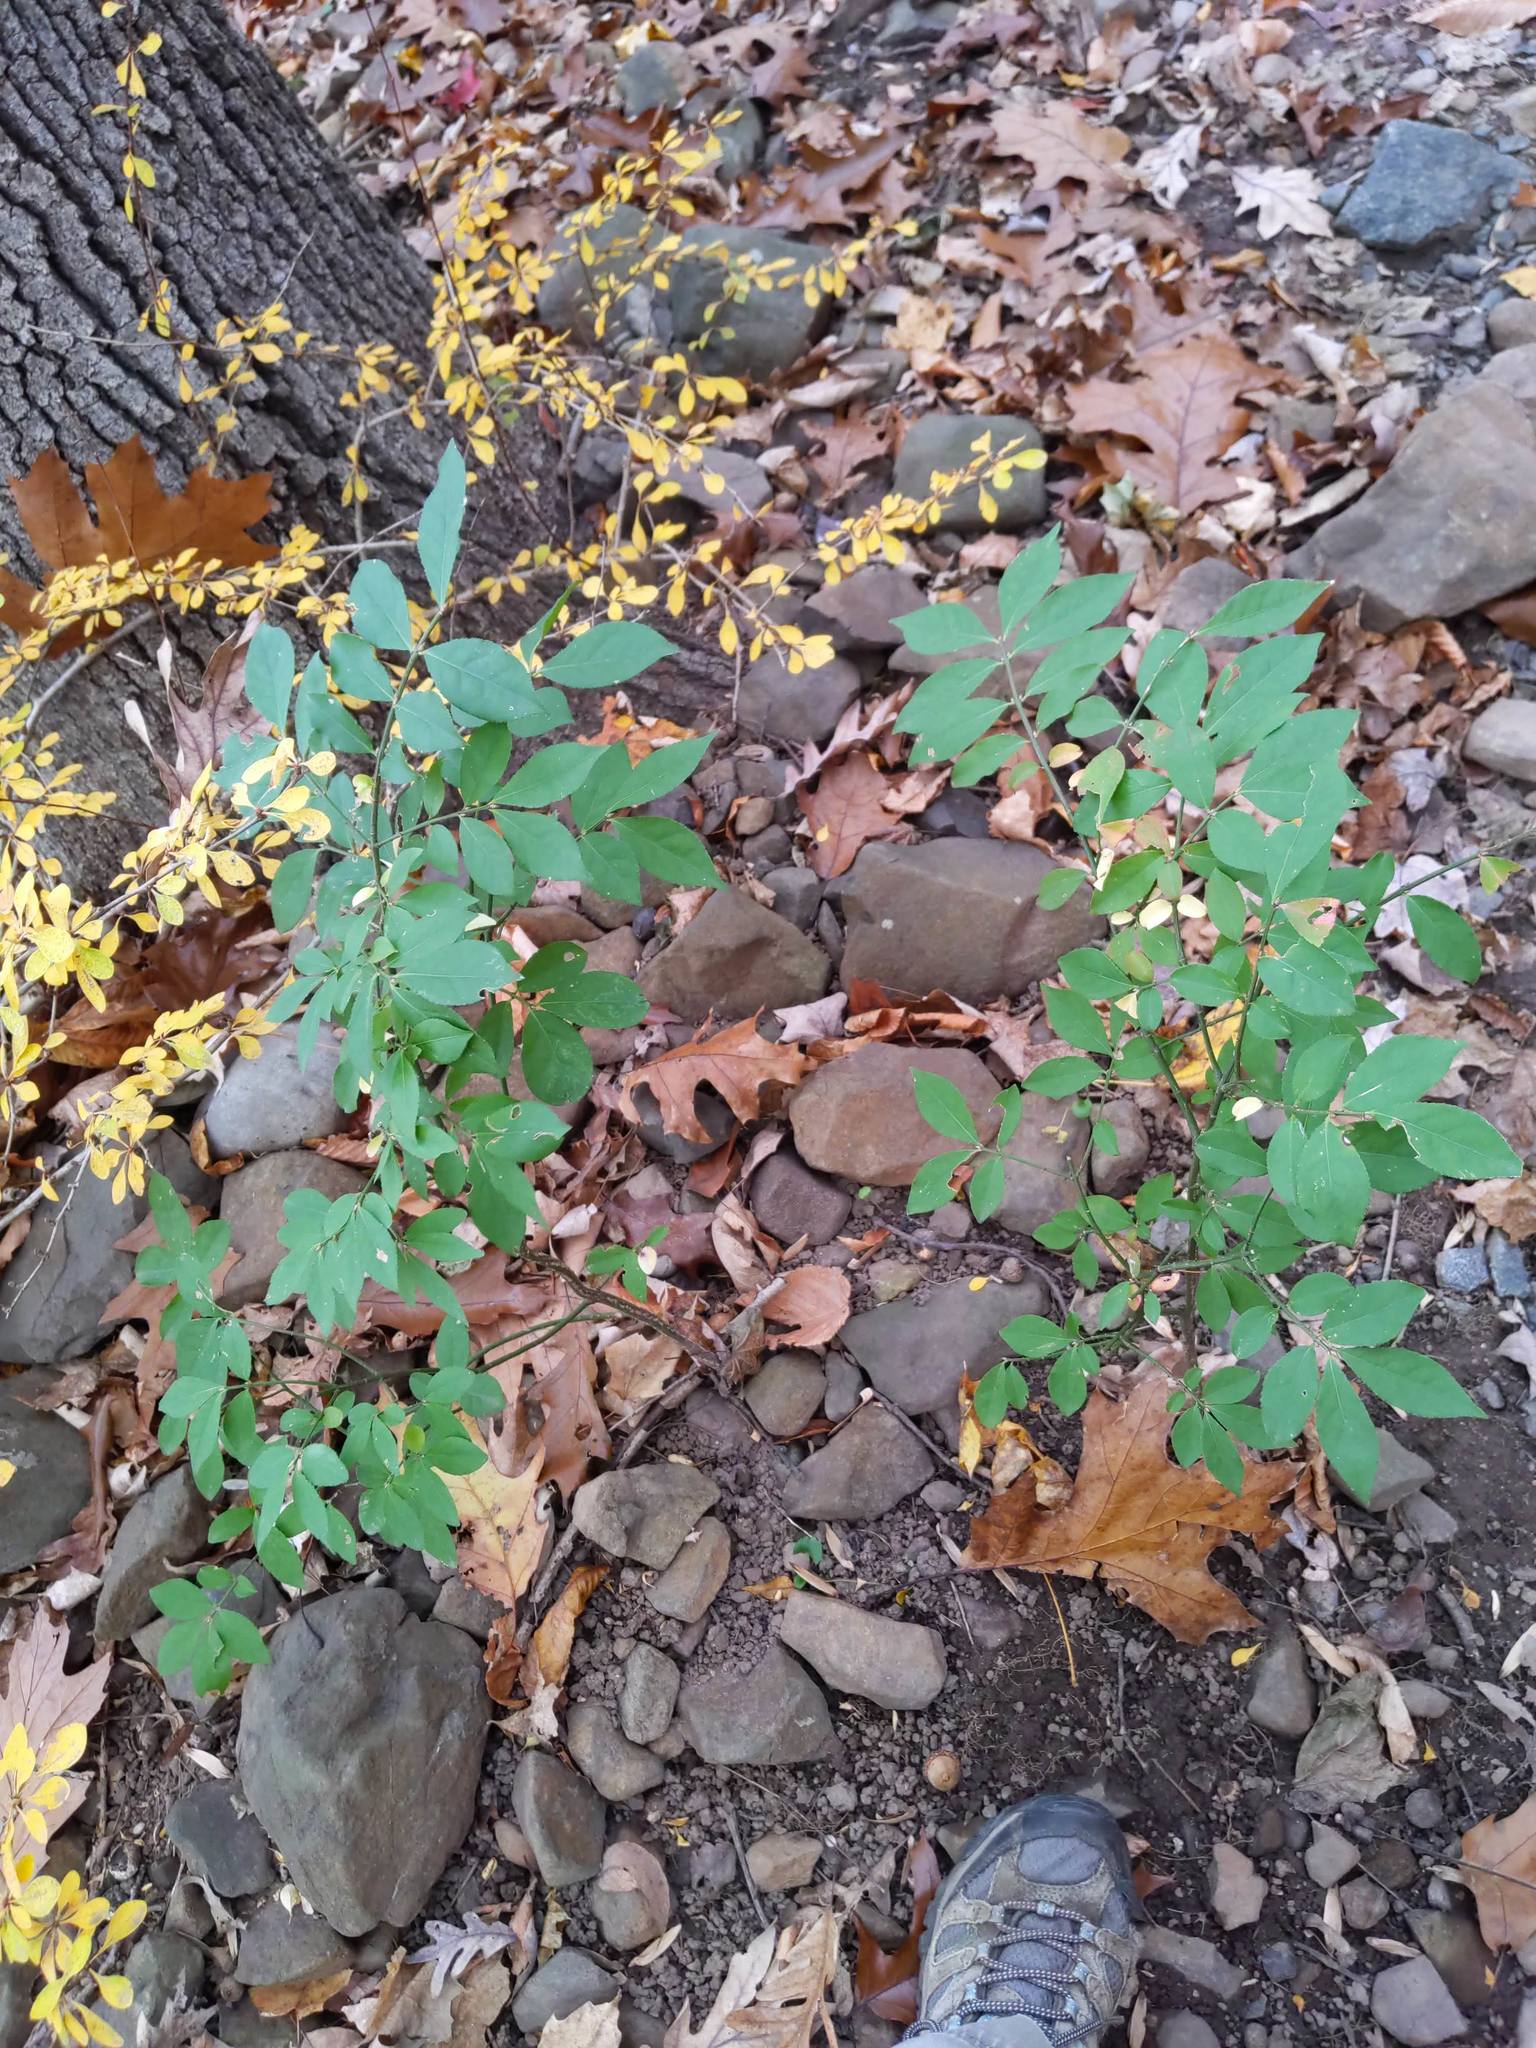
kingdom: Plantae
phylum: Tracheophyta
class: Magnoliopsida
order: Celastrales
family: Celastraceae
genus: Euonymus
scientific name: Euonymus alatus
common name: Winged euonymus
